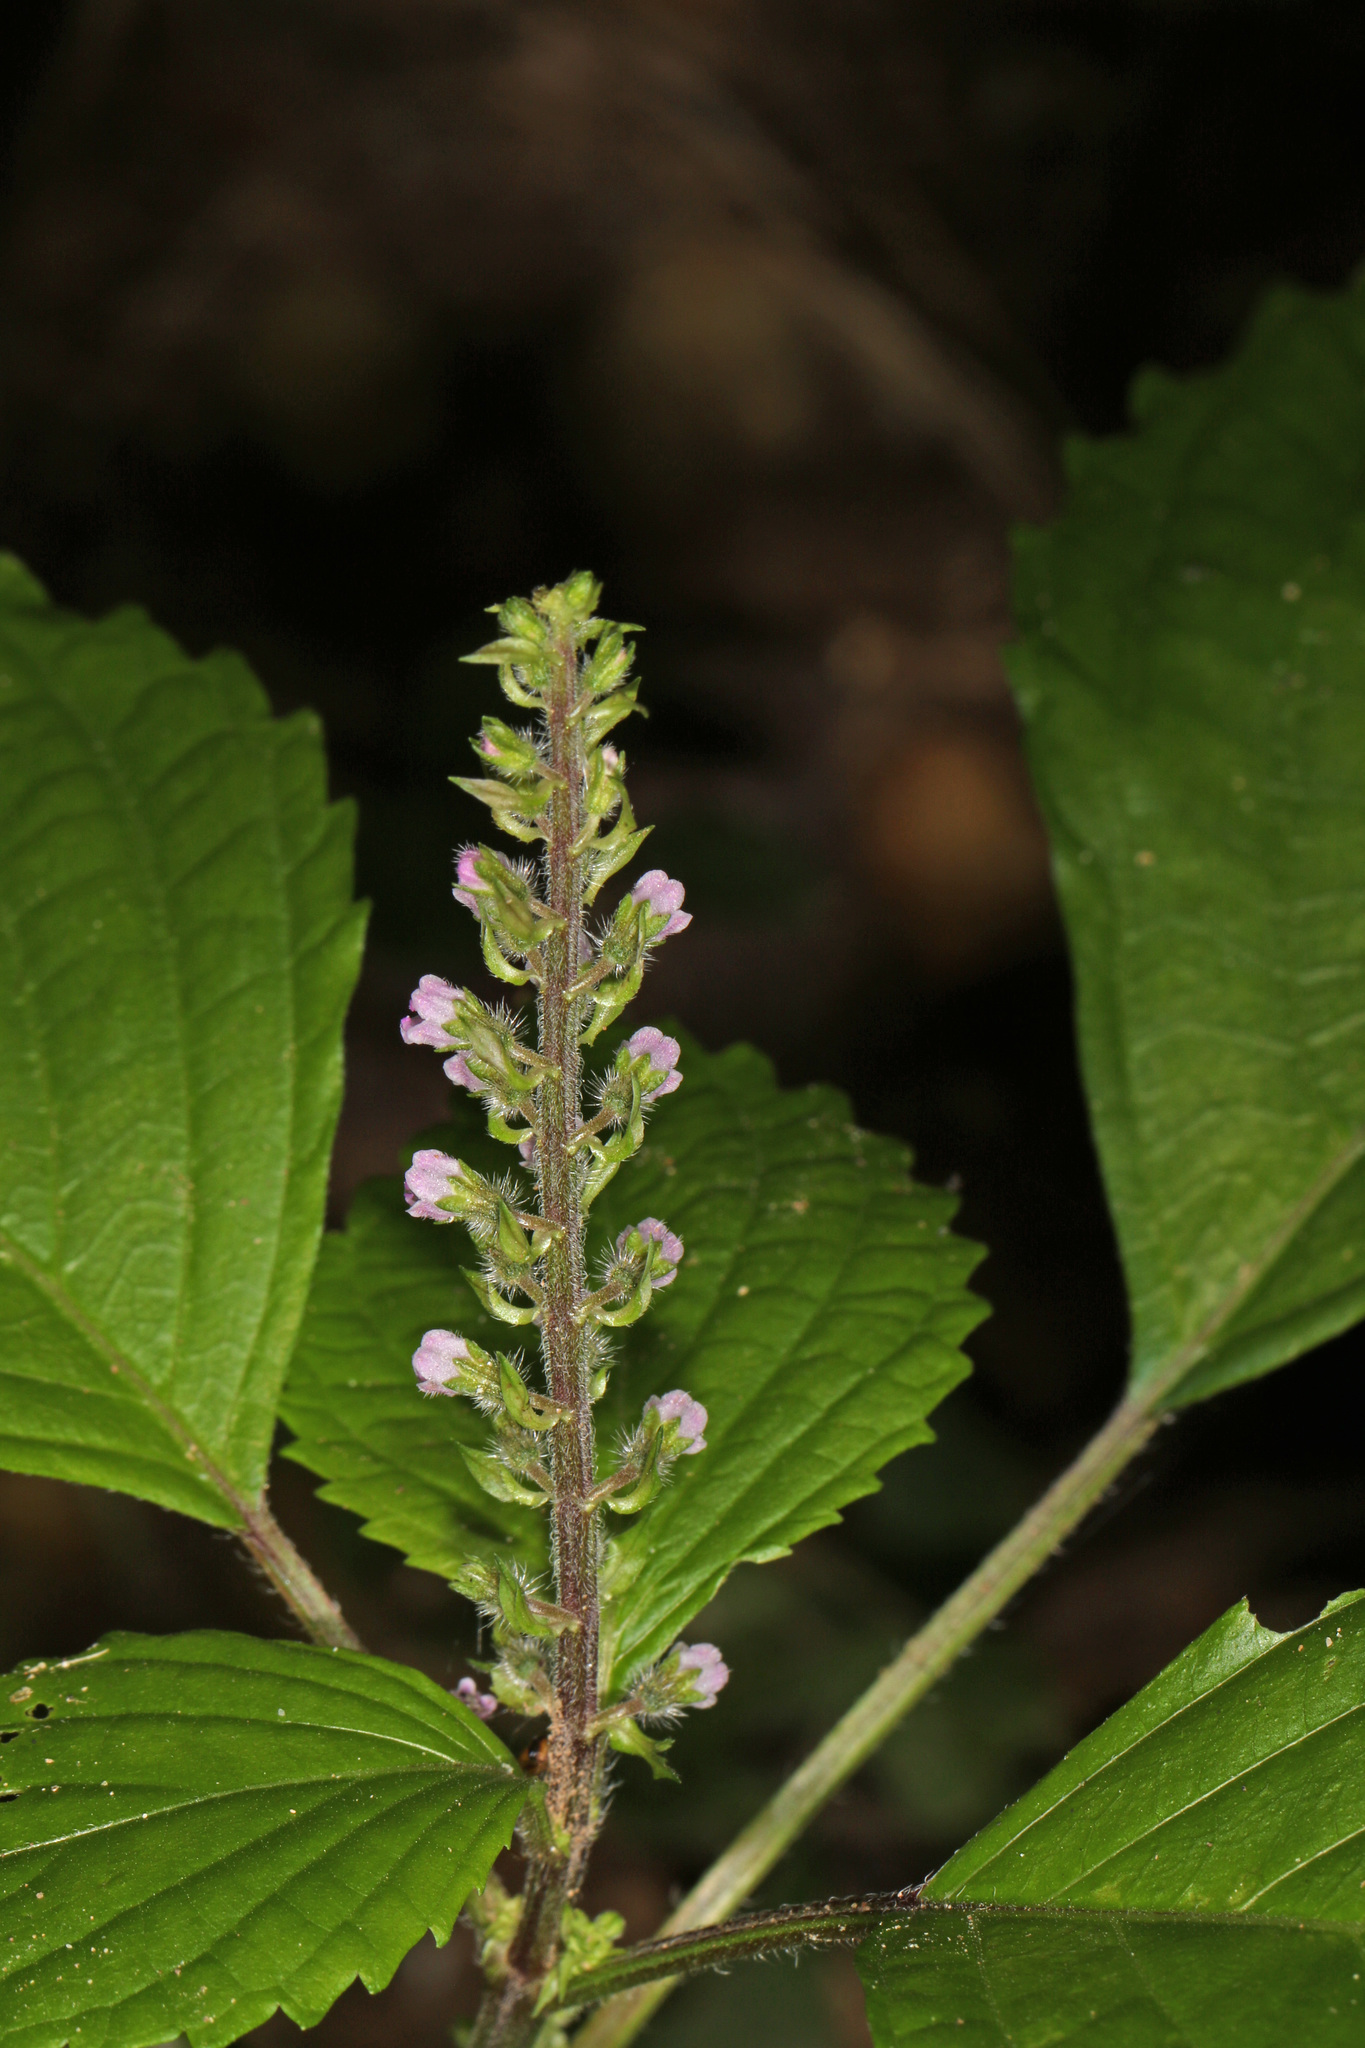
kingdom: Plantae
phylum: Tracheophyta
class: Magnoliopsida
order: Lamiales
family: Lamiaceae
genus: Perilla
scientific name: Perilla frutescens
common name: Perilla
